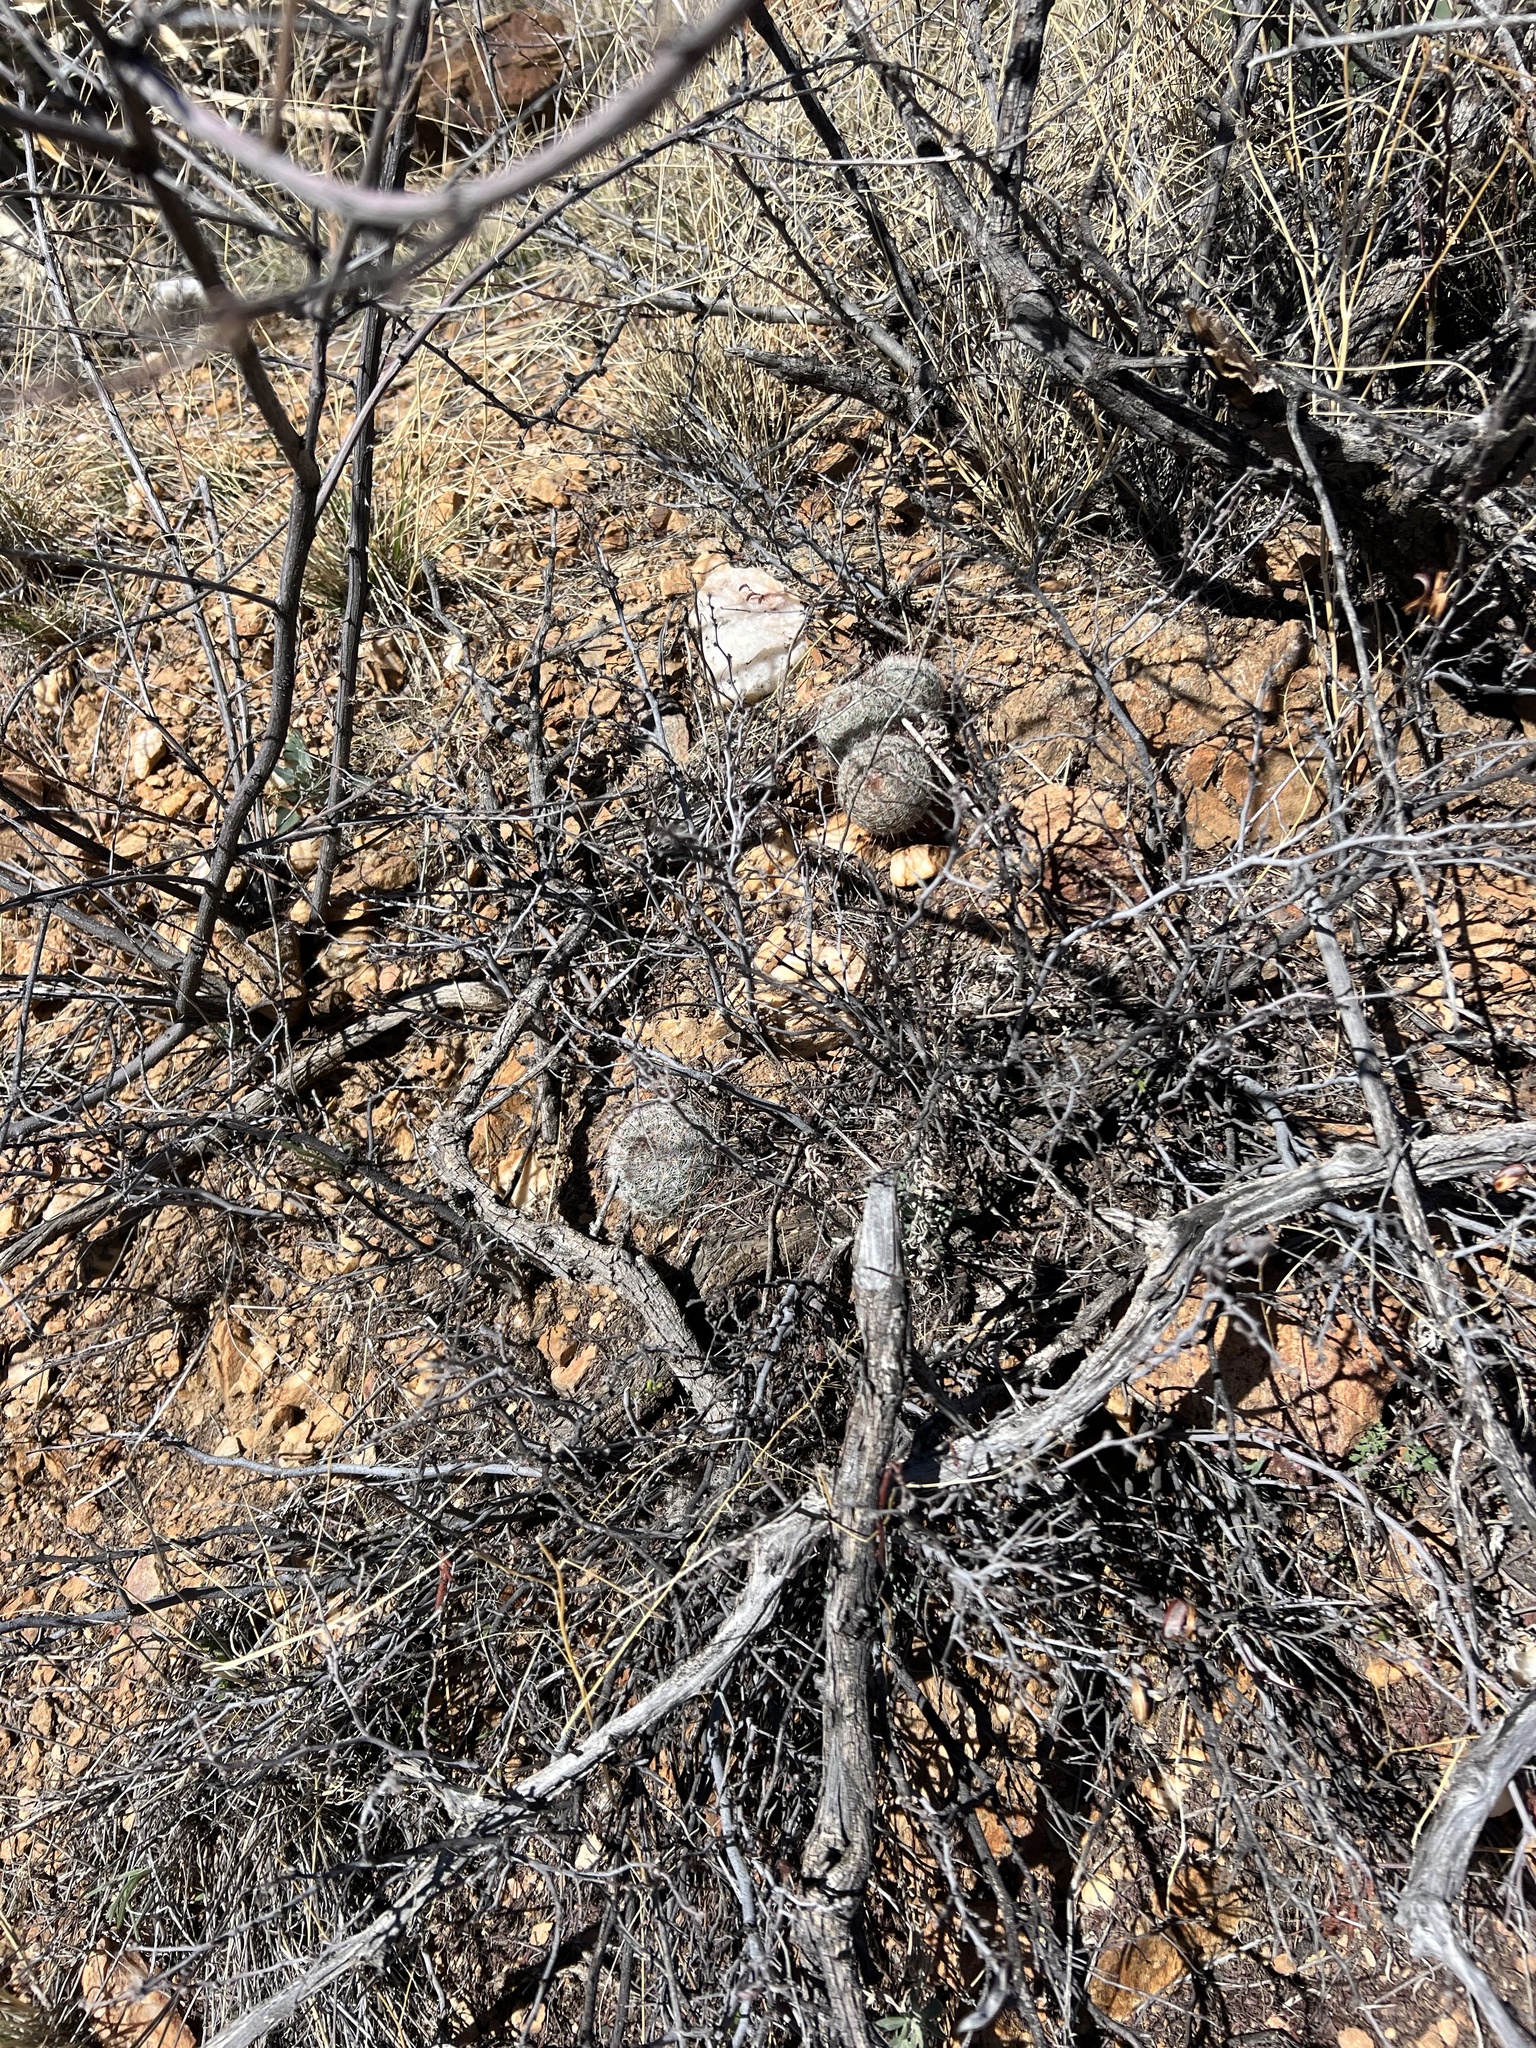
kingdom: Plantae
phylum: Tracheophyta
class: Magnoliopsida
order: Caryophyllales
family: Cactaceae
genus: Cochemiea
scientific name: Cochemiea grahamii
